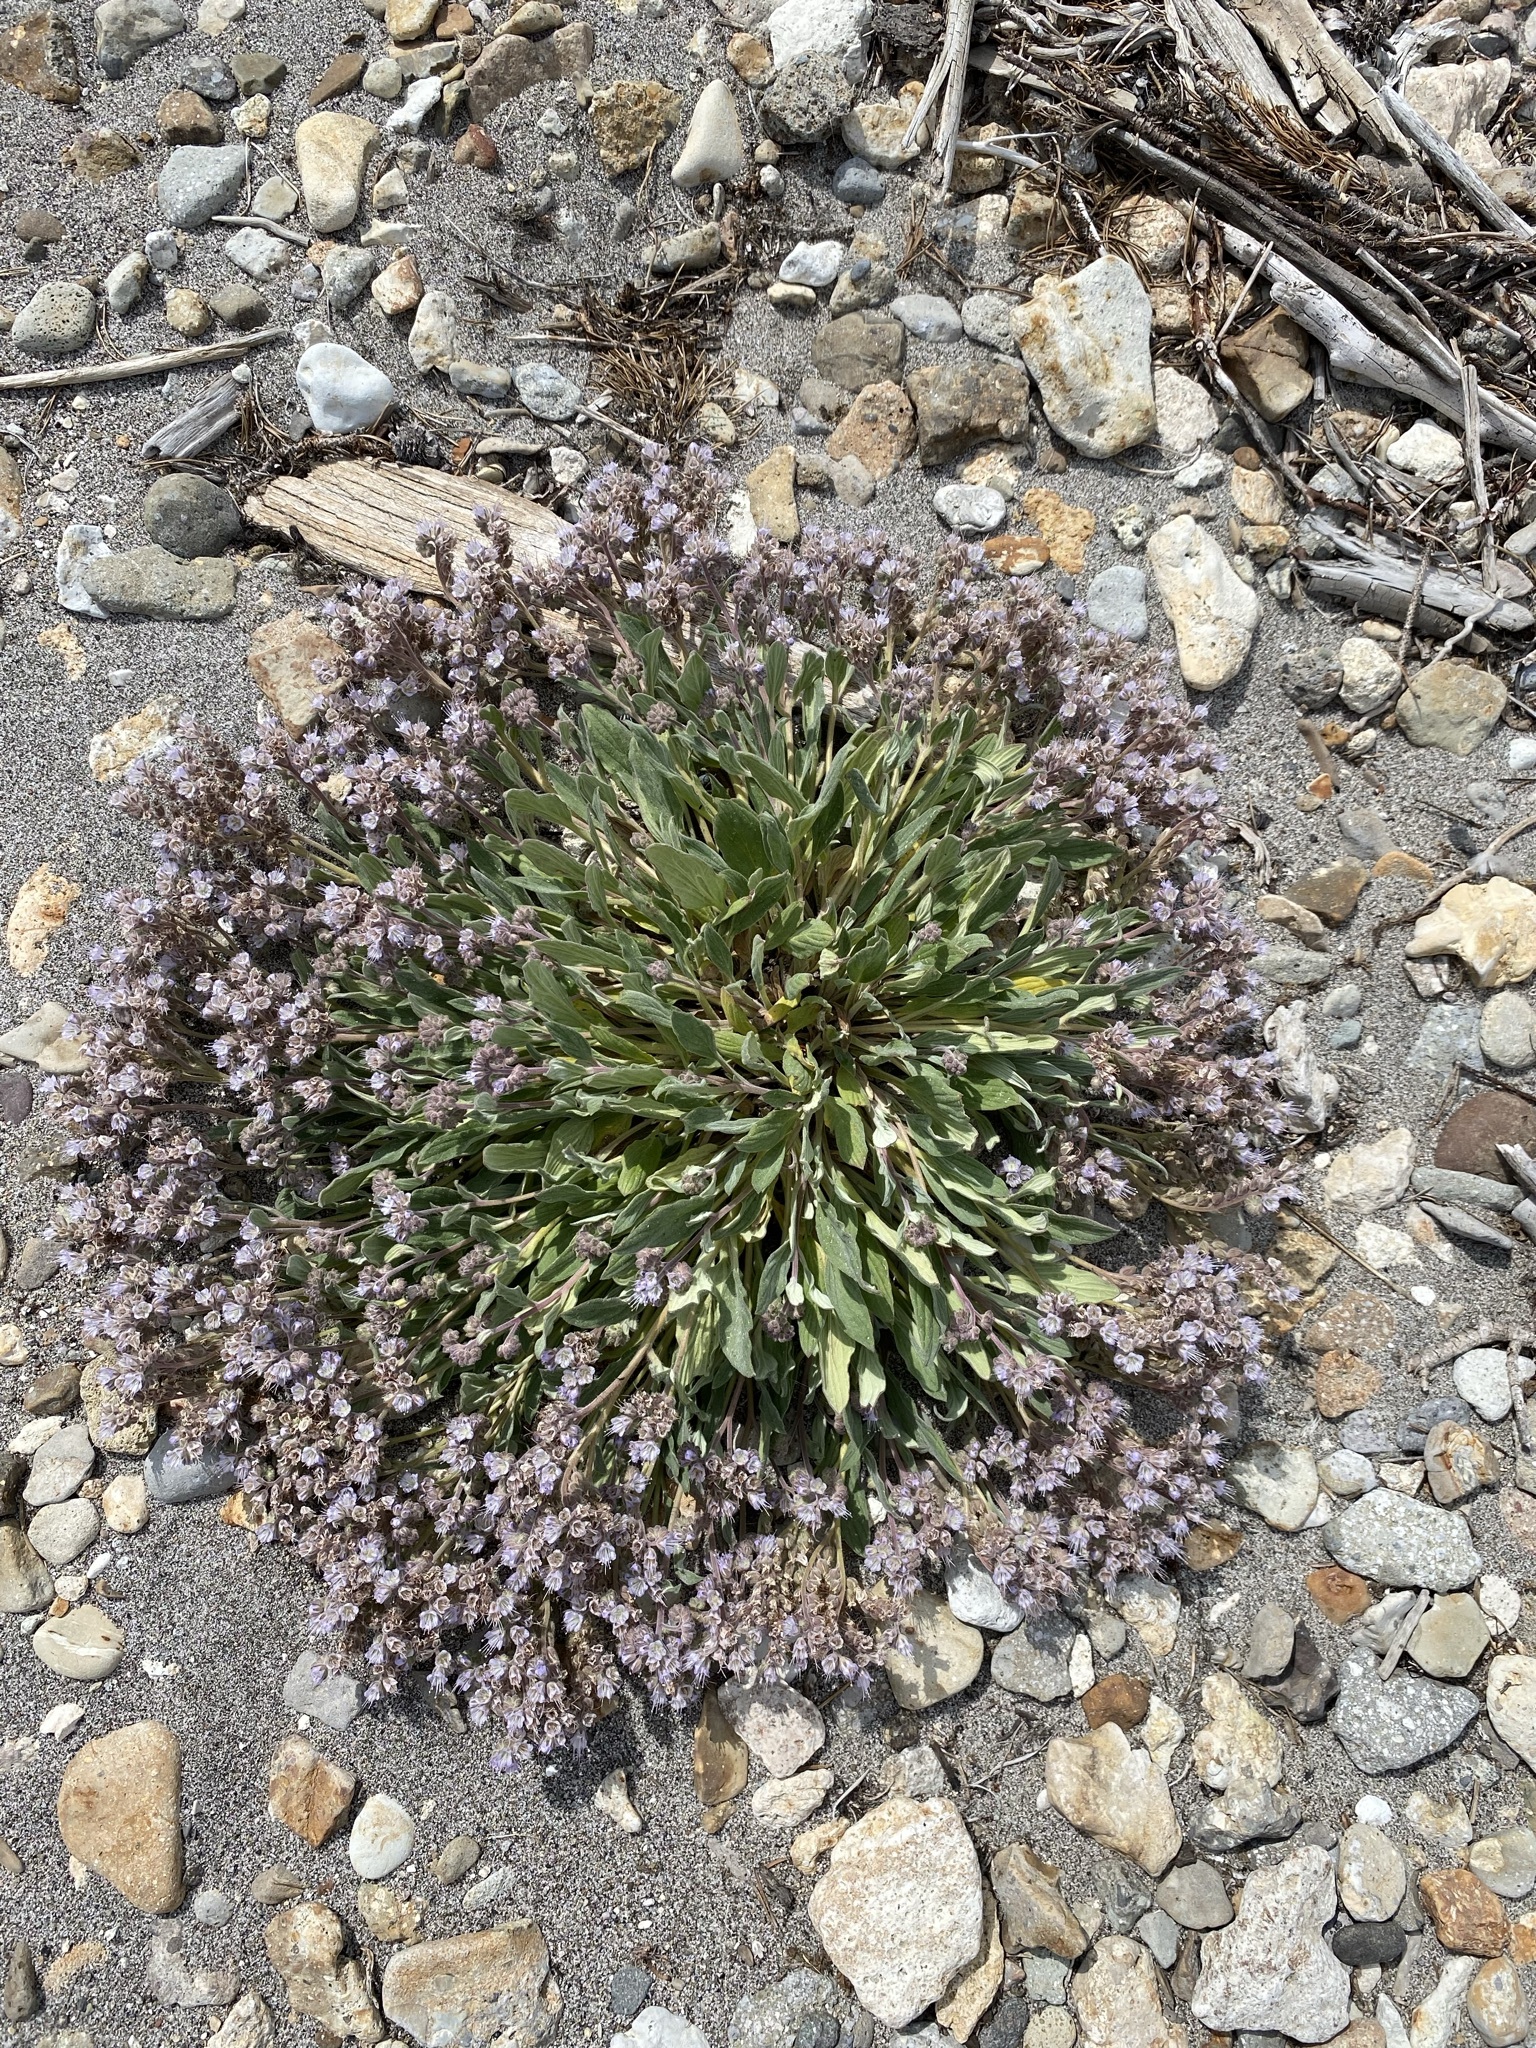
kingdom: Plantae
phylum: Tracheophyta
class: Magnoliopsida
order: Boraginales
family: Hydrophyllaceae
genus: Phacelia
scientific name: Phacelia hastata
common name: Silver-leaved phacelia
